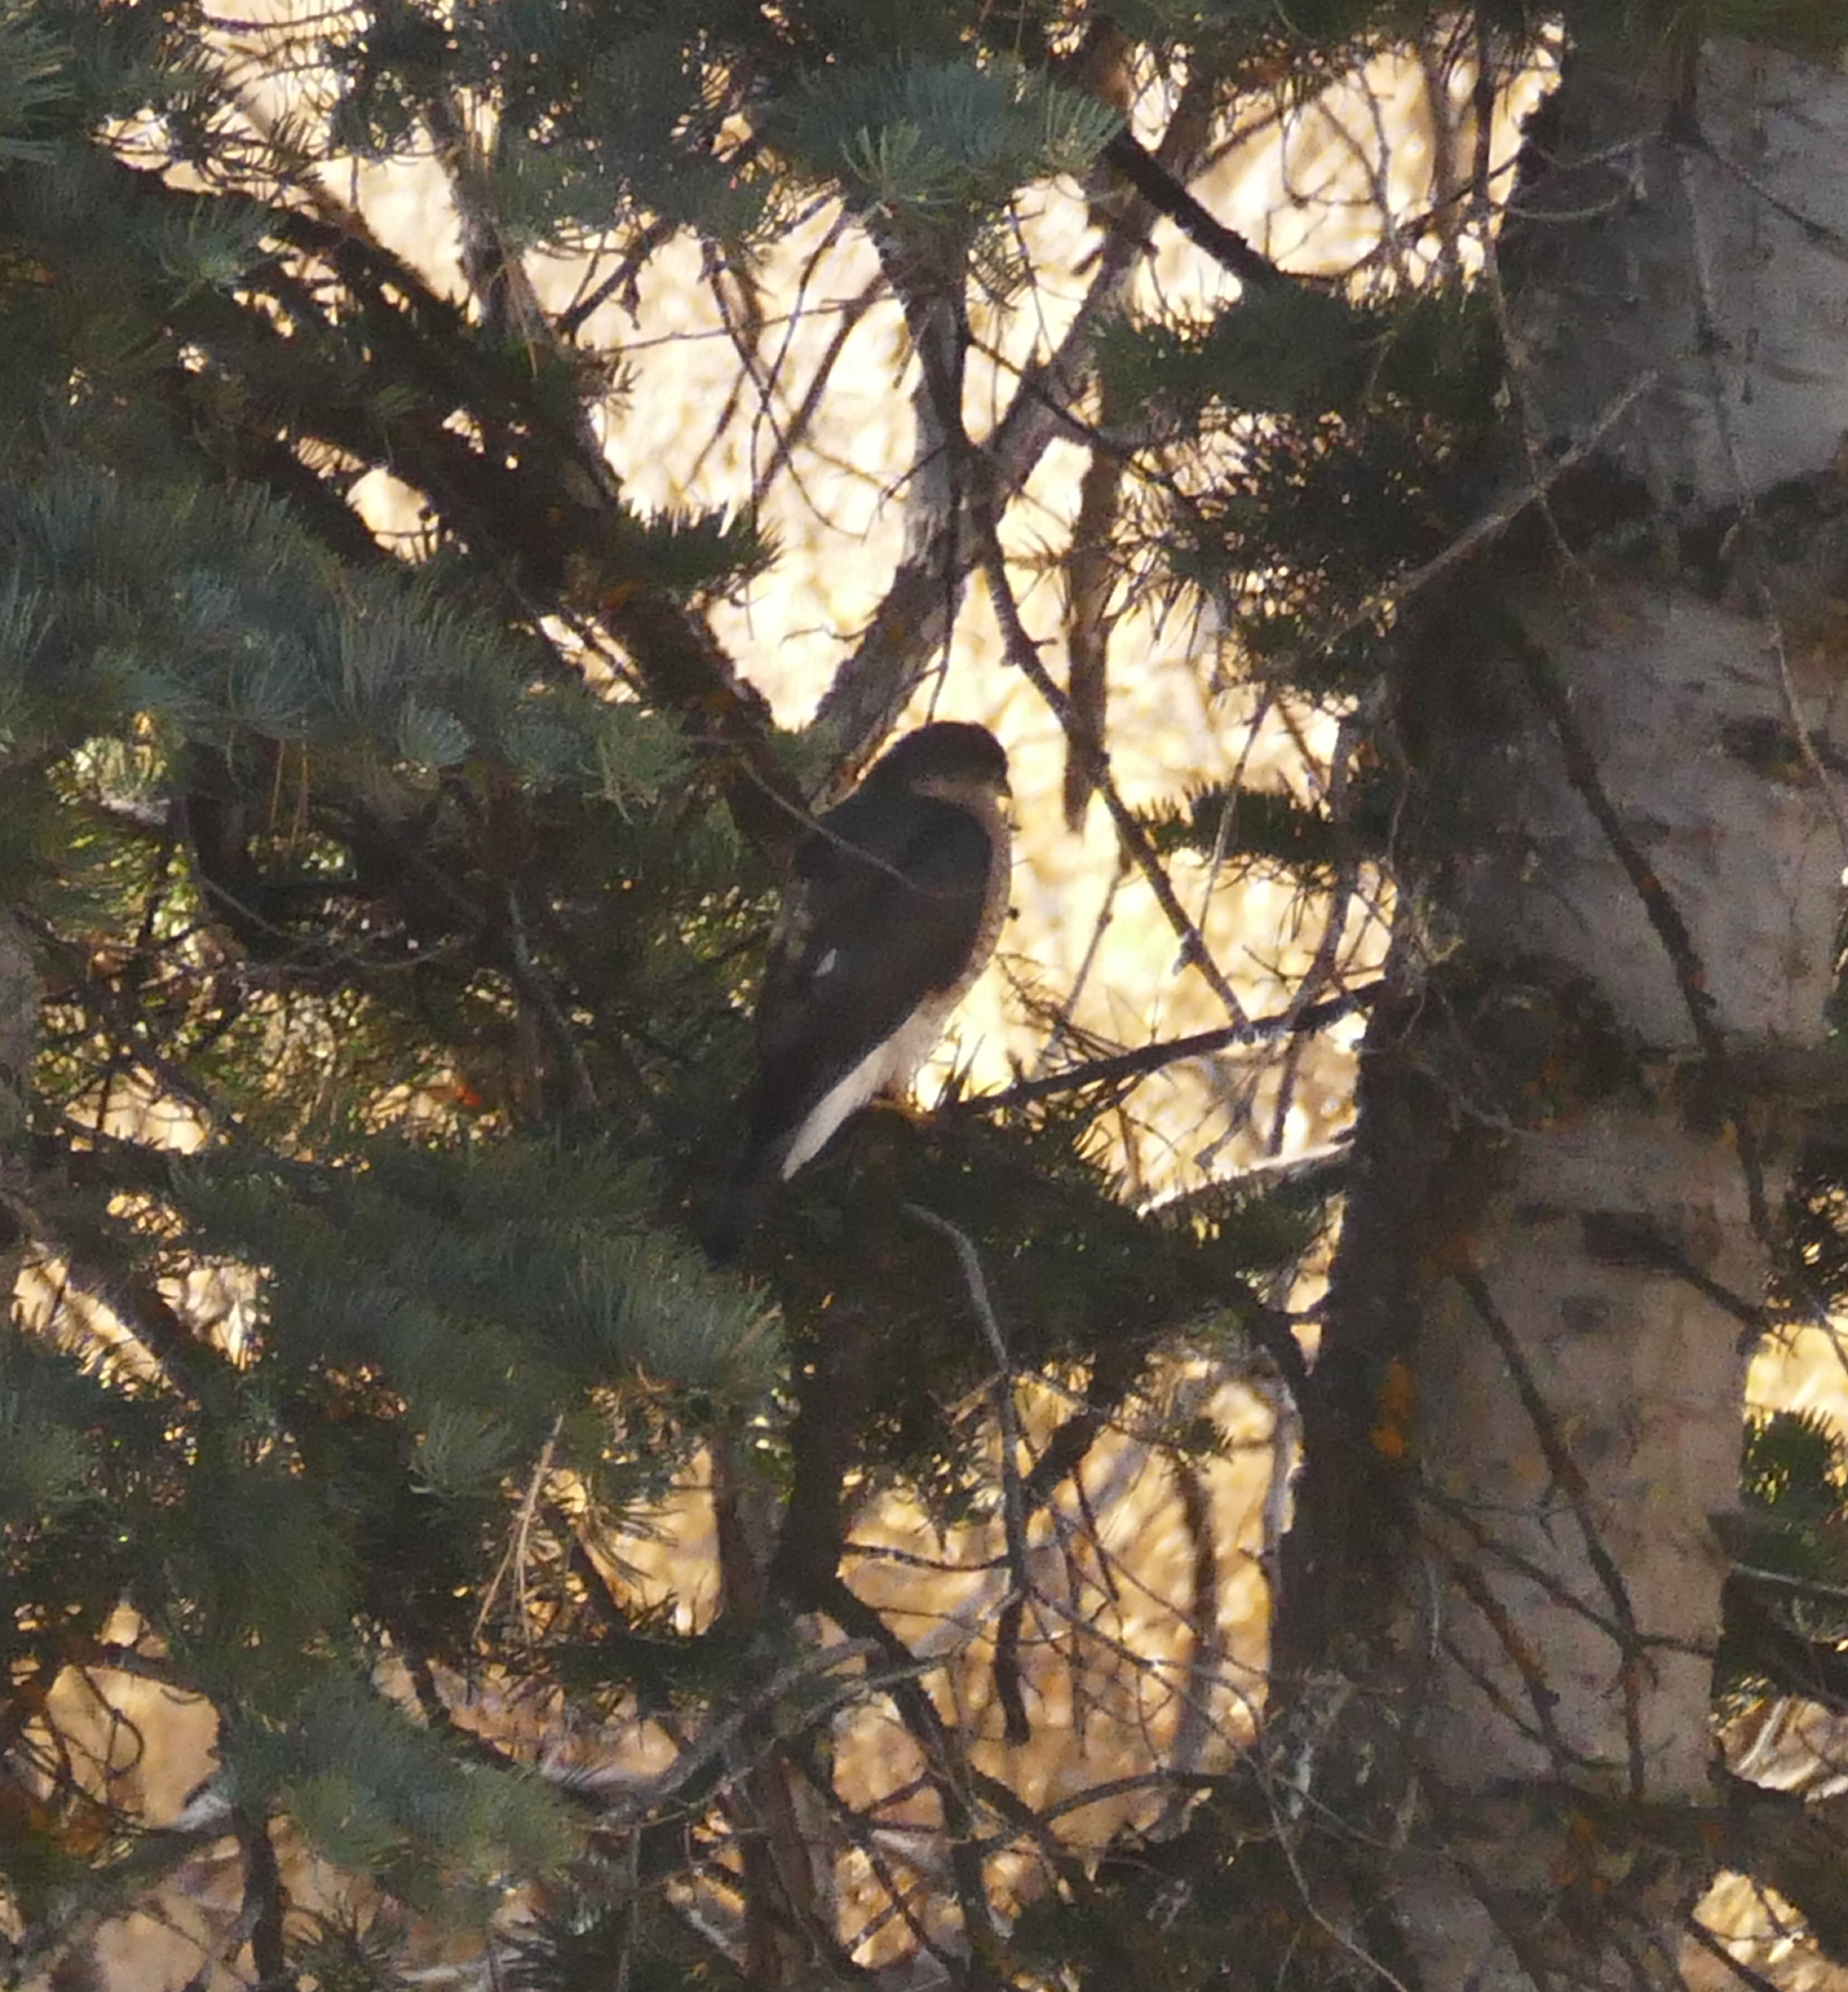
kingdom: Animalia
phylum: Chordata
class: Aves
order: Accipitriformes
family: Accipitridae
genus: Accipiter
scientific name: Accipiter striatus
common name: Sharp-shinned hawk
